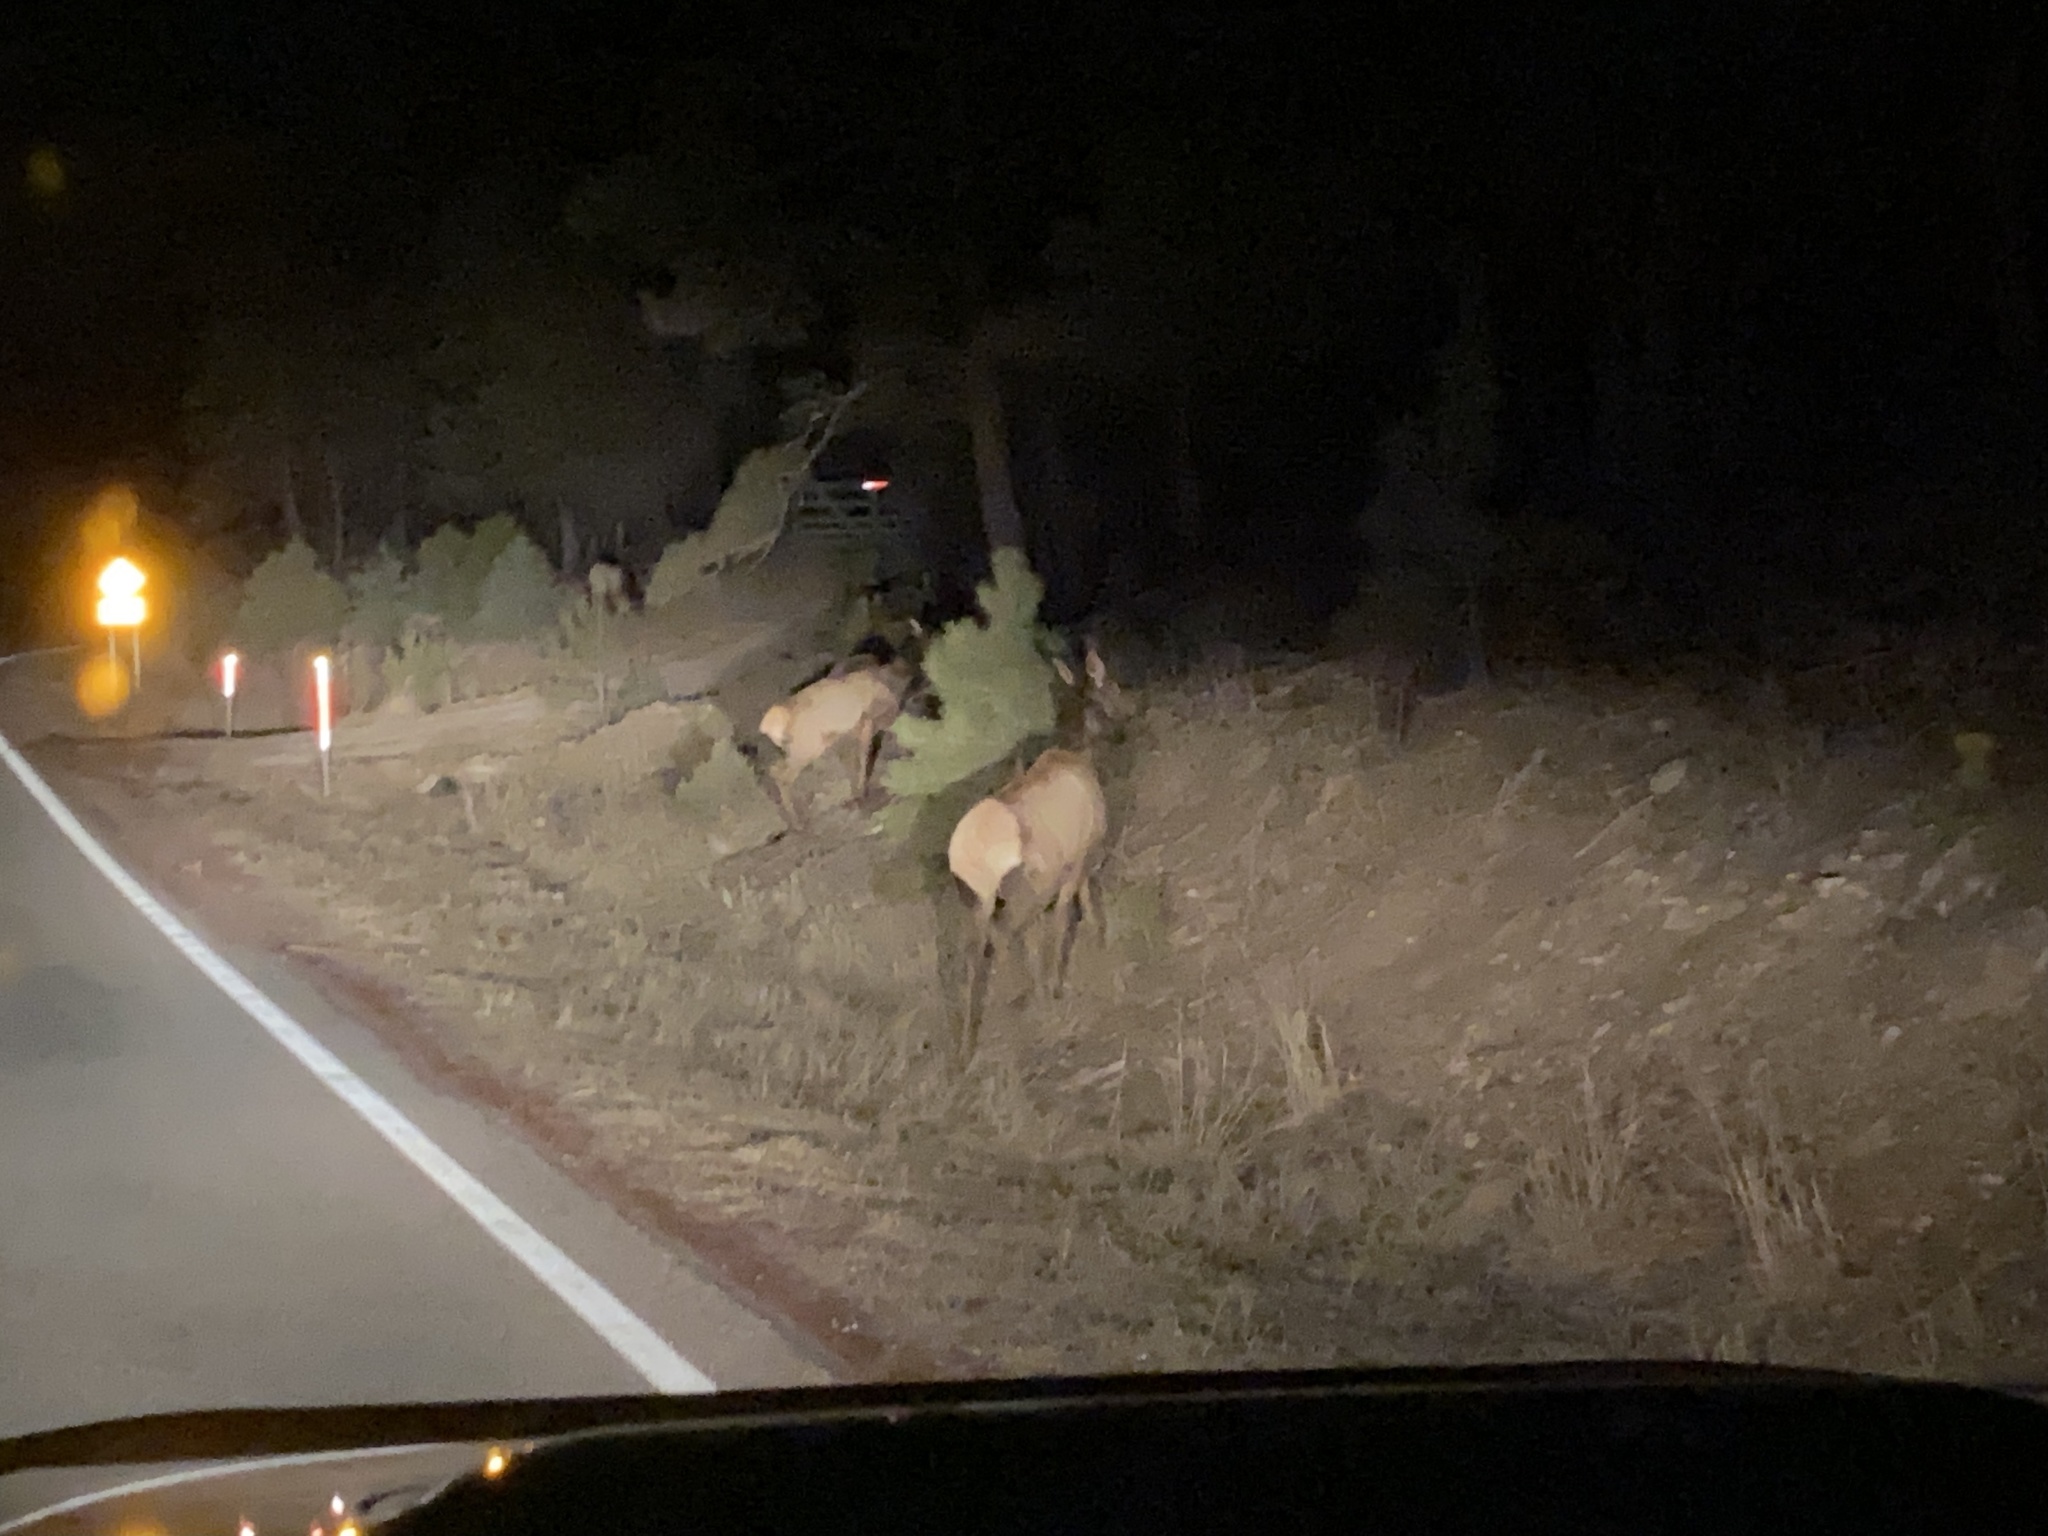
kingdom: Animalia
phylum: Chordata
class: Mammalia
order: Artiodactyla
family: Cervidae
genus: Cervus
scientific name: Cervus elaphus
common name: Red deer
